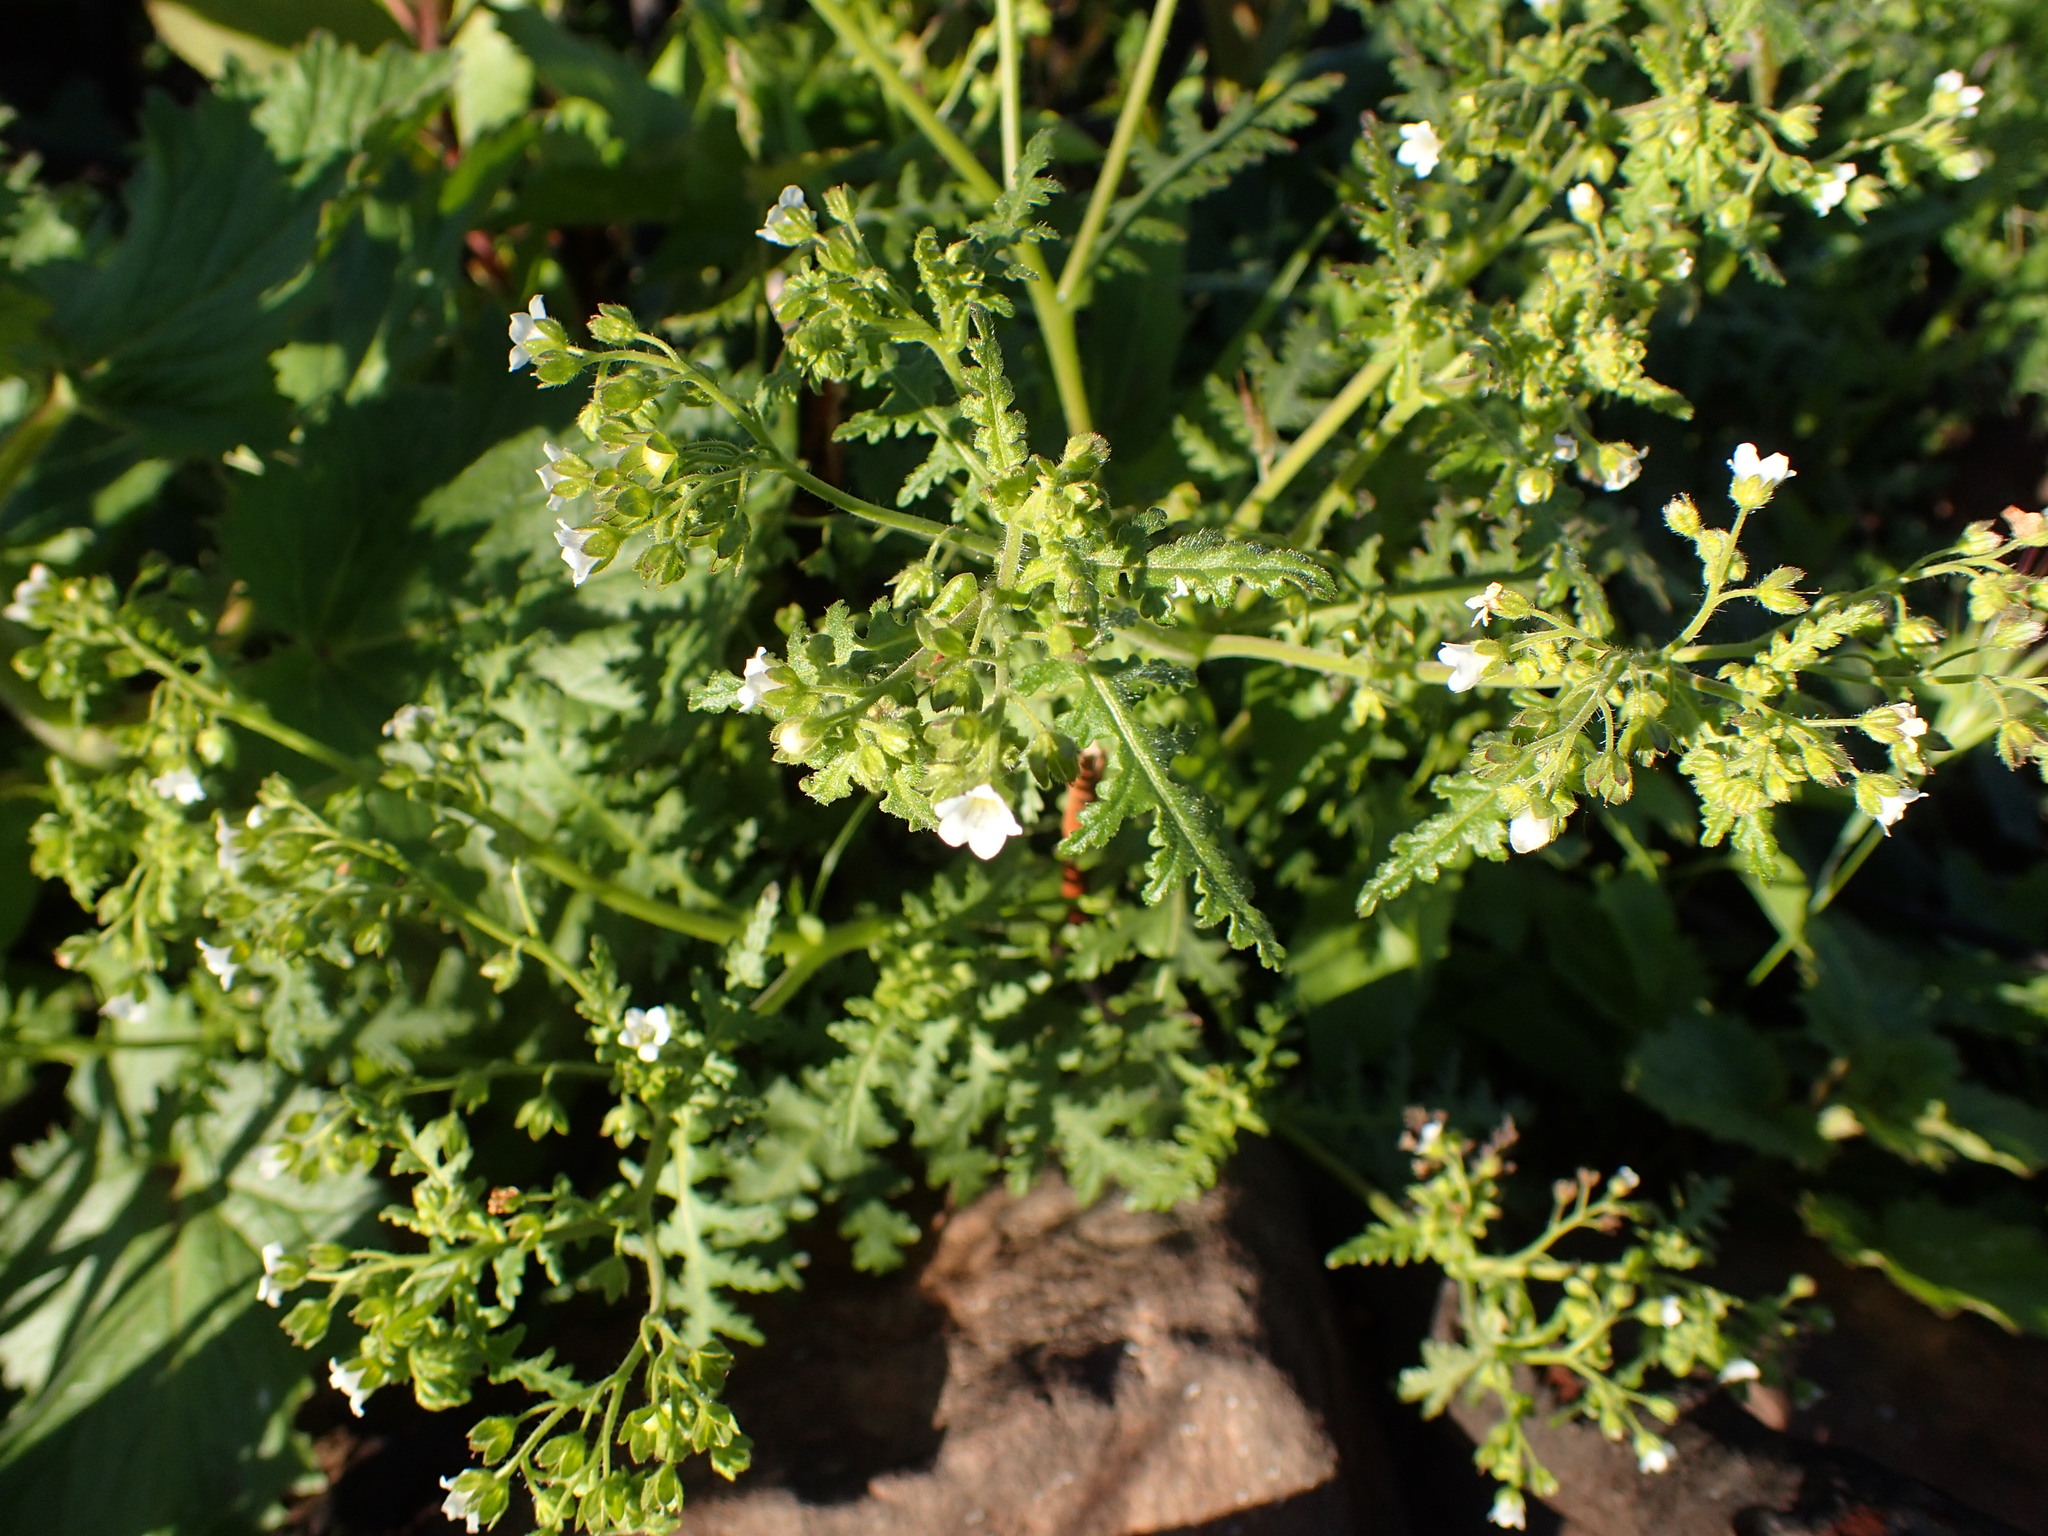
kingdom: Plantae
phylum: Tracheophyta
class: Magnoliopsida
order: Boraginales
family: Hydrophyllaceae
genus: Eucrypta
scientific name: Eucrypta chrysanthemifolia
